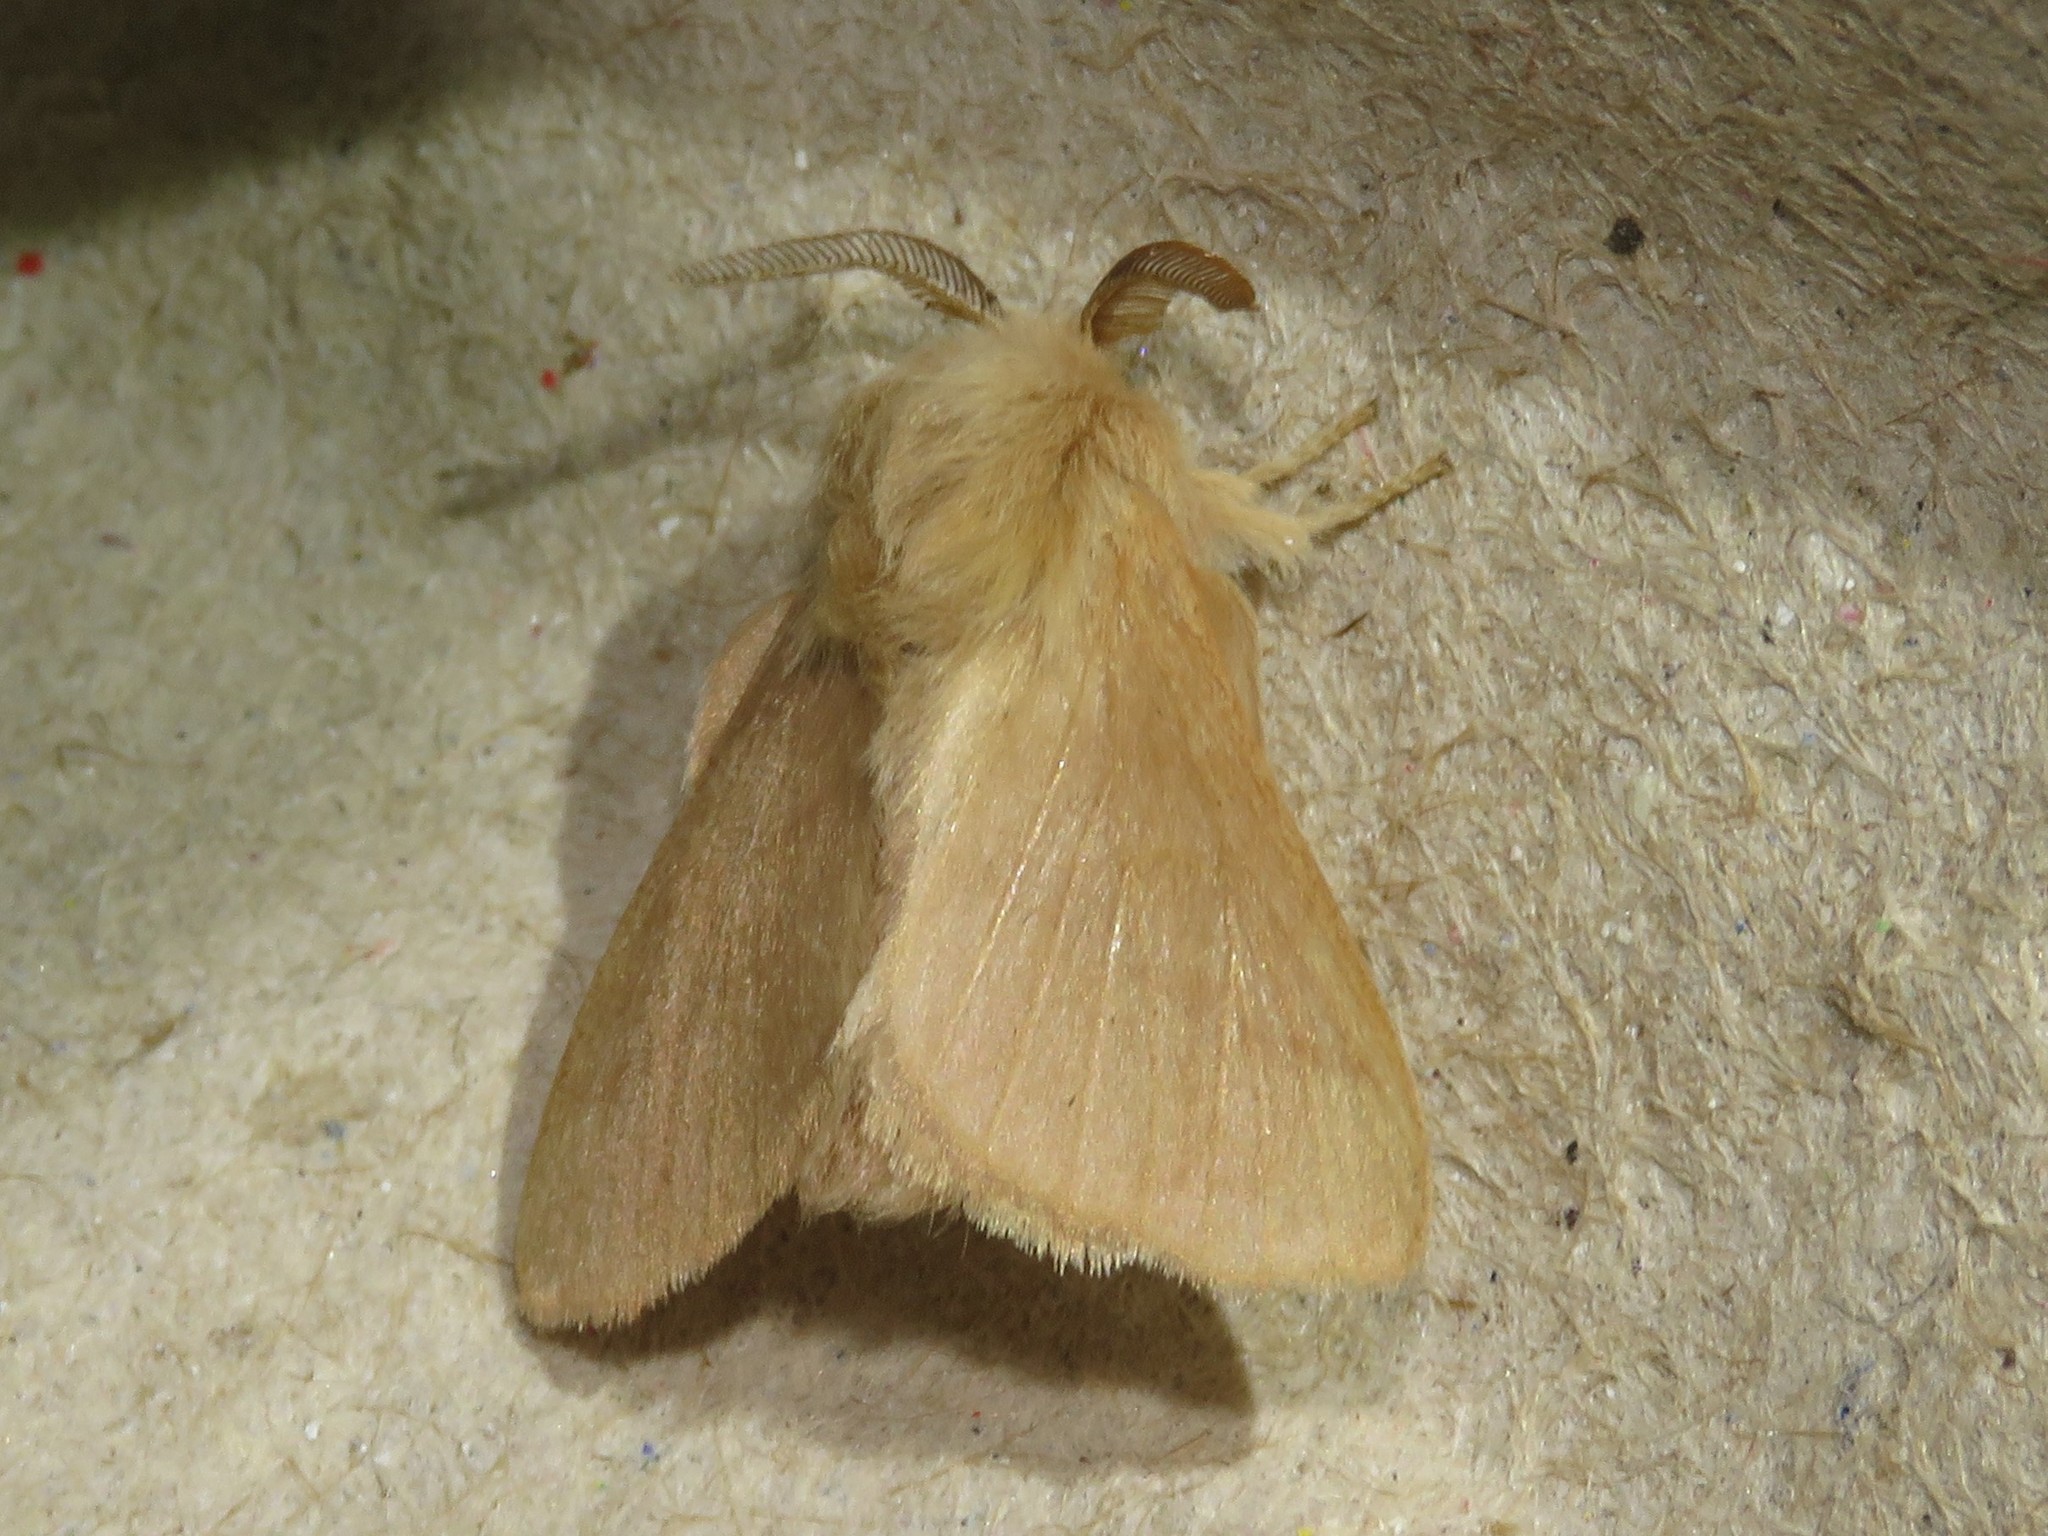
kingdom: Animalia
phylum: Arthropoda
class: Insecta
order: Lepidoptera
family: Lasiocampidae
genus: Malacosoma
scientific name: Malacosoma disstria
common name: Forest tent caterpillar
